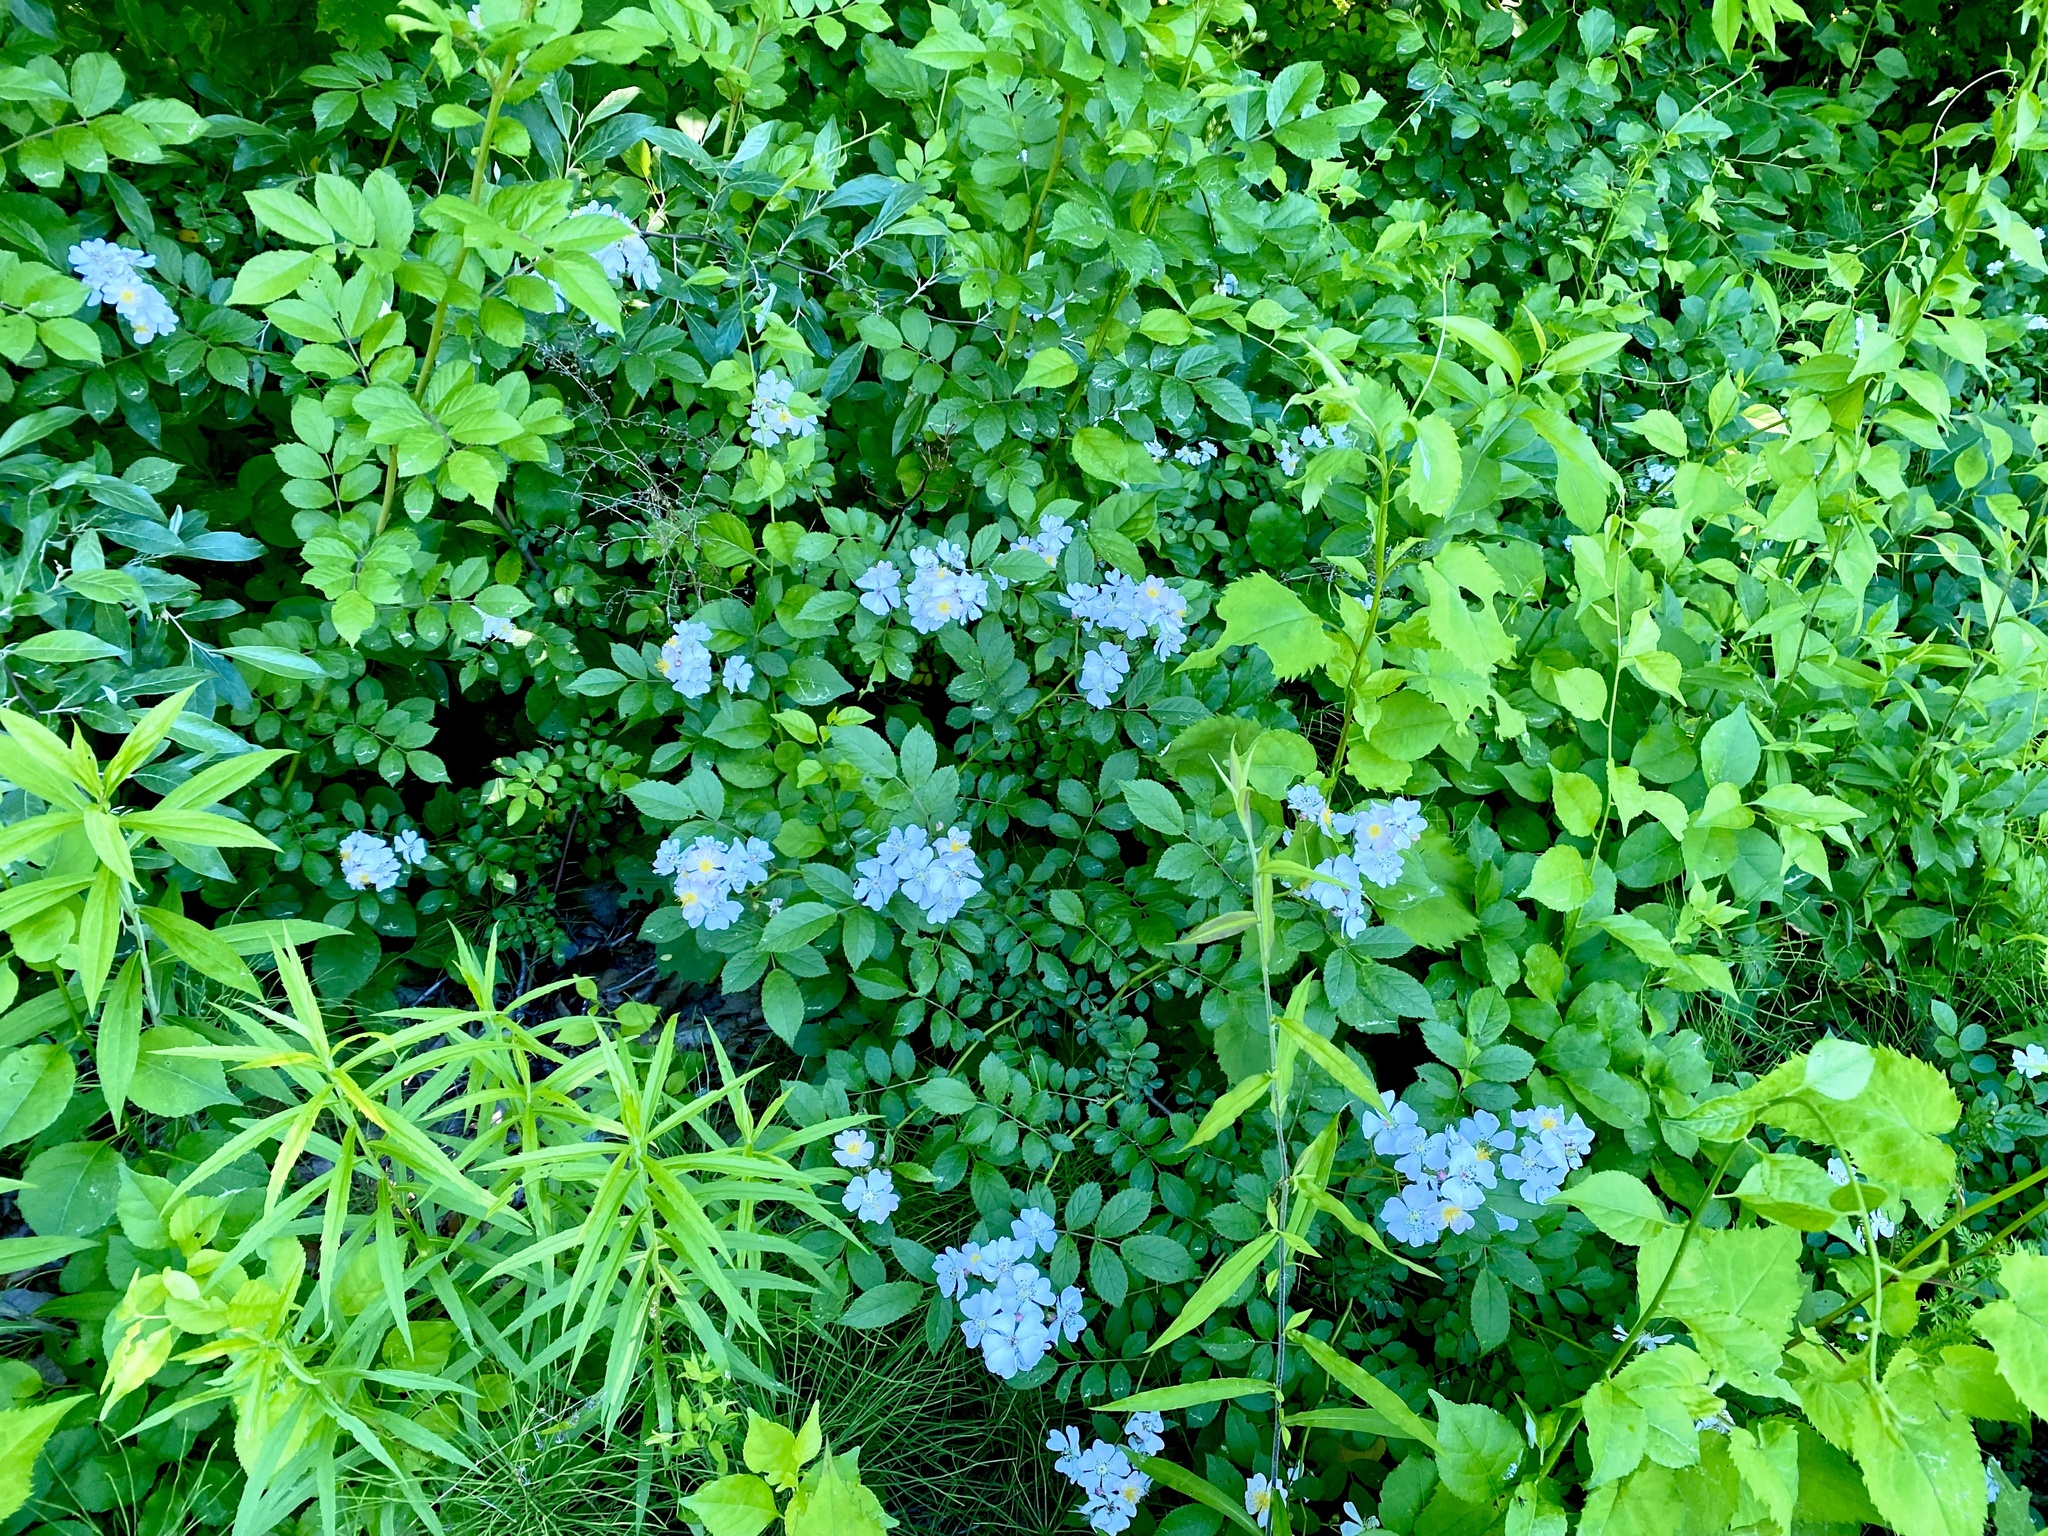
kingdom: Plantae
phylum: Tracheophyta
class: Magnoliopsida
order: Rosales
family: Rosaceae
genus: Rosa
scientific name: Rosa multiflora
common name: Multiflora rose
